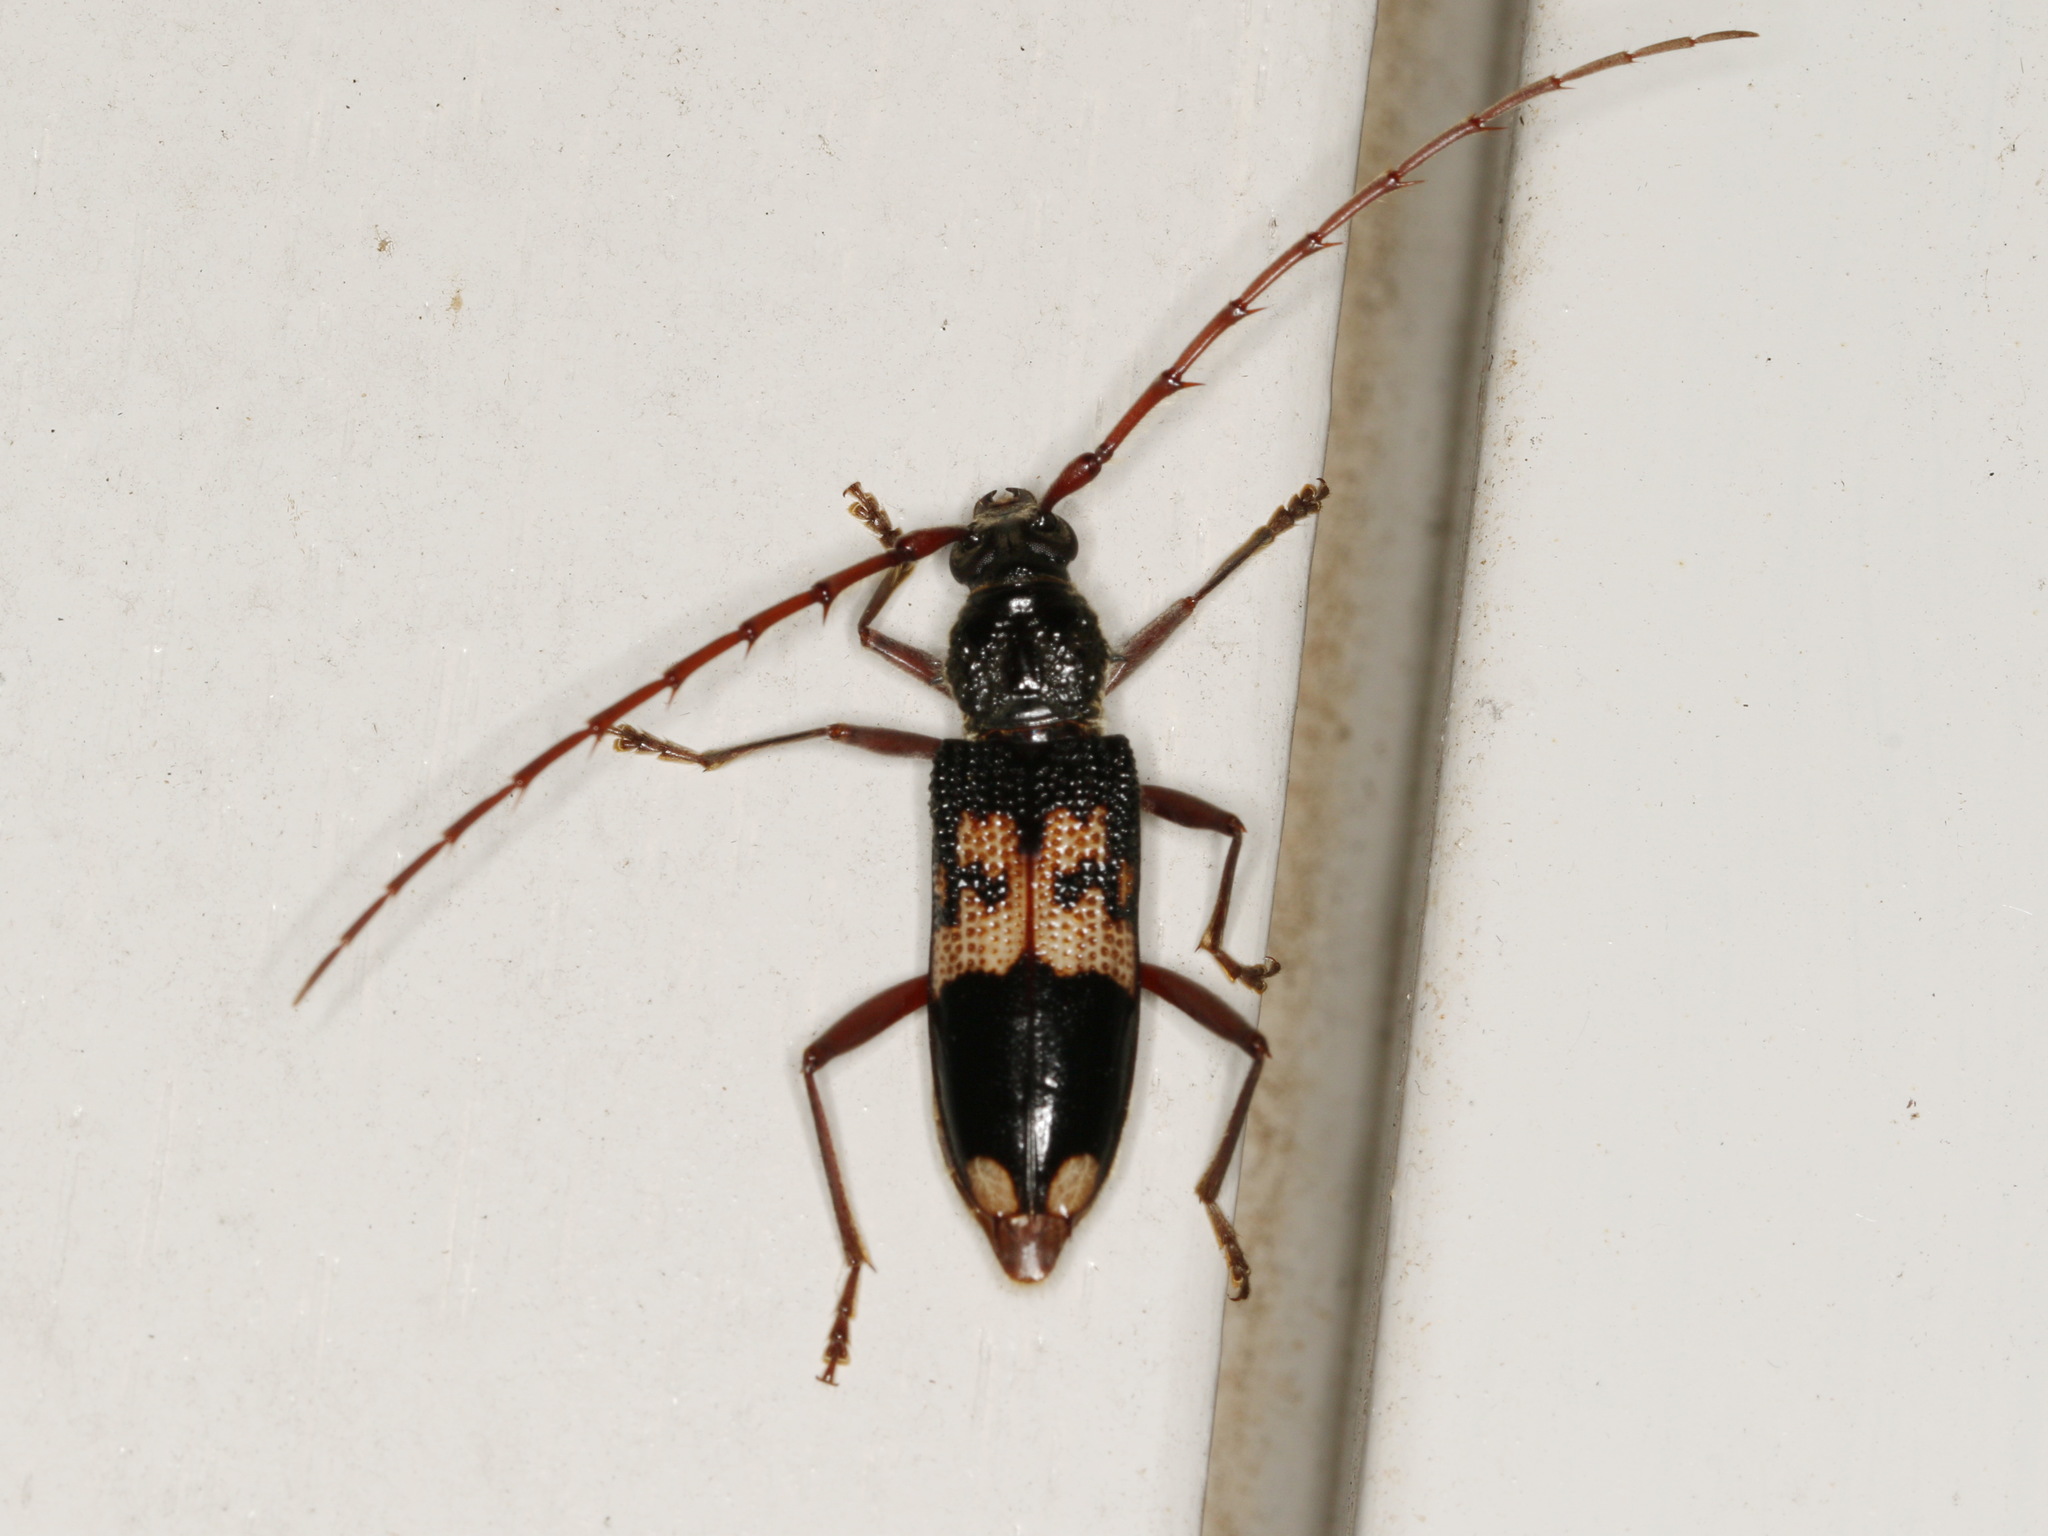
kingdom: Animalia
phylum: Arthropoda
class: Insecta
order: Coleoptera
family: Cerambycidae
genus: Phoracantha
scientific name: Phoracantha semipunctata
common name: Eucalyptus longhorn borer
